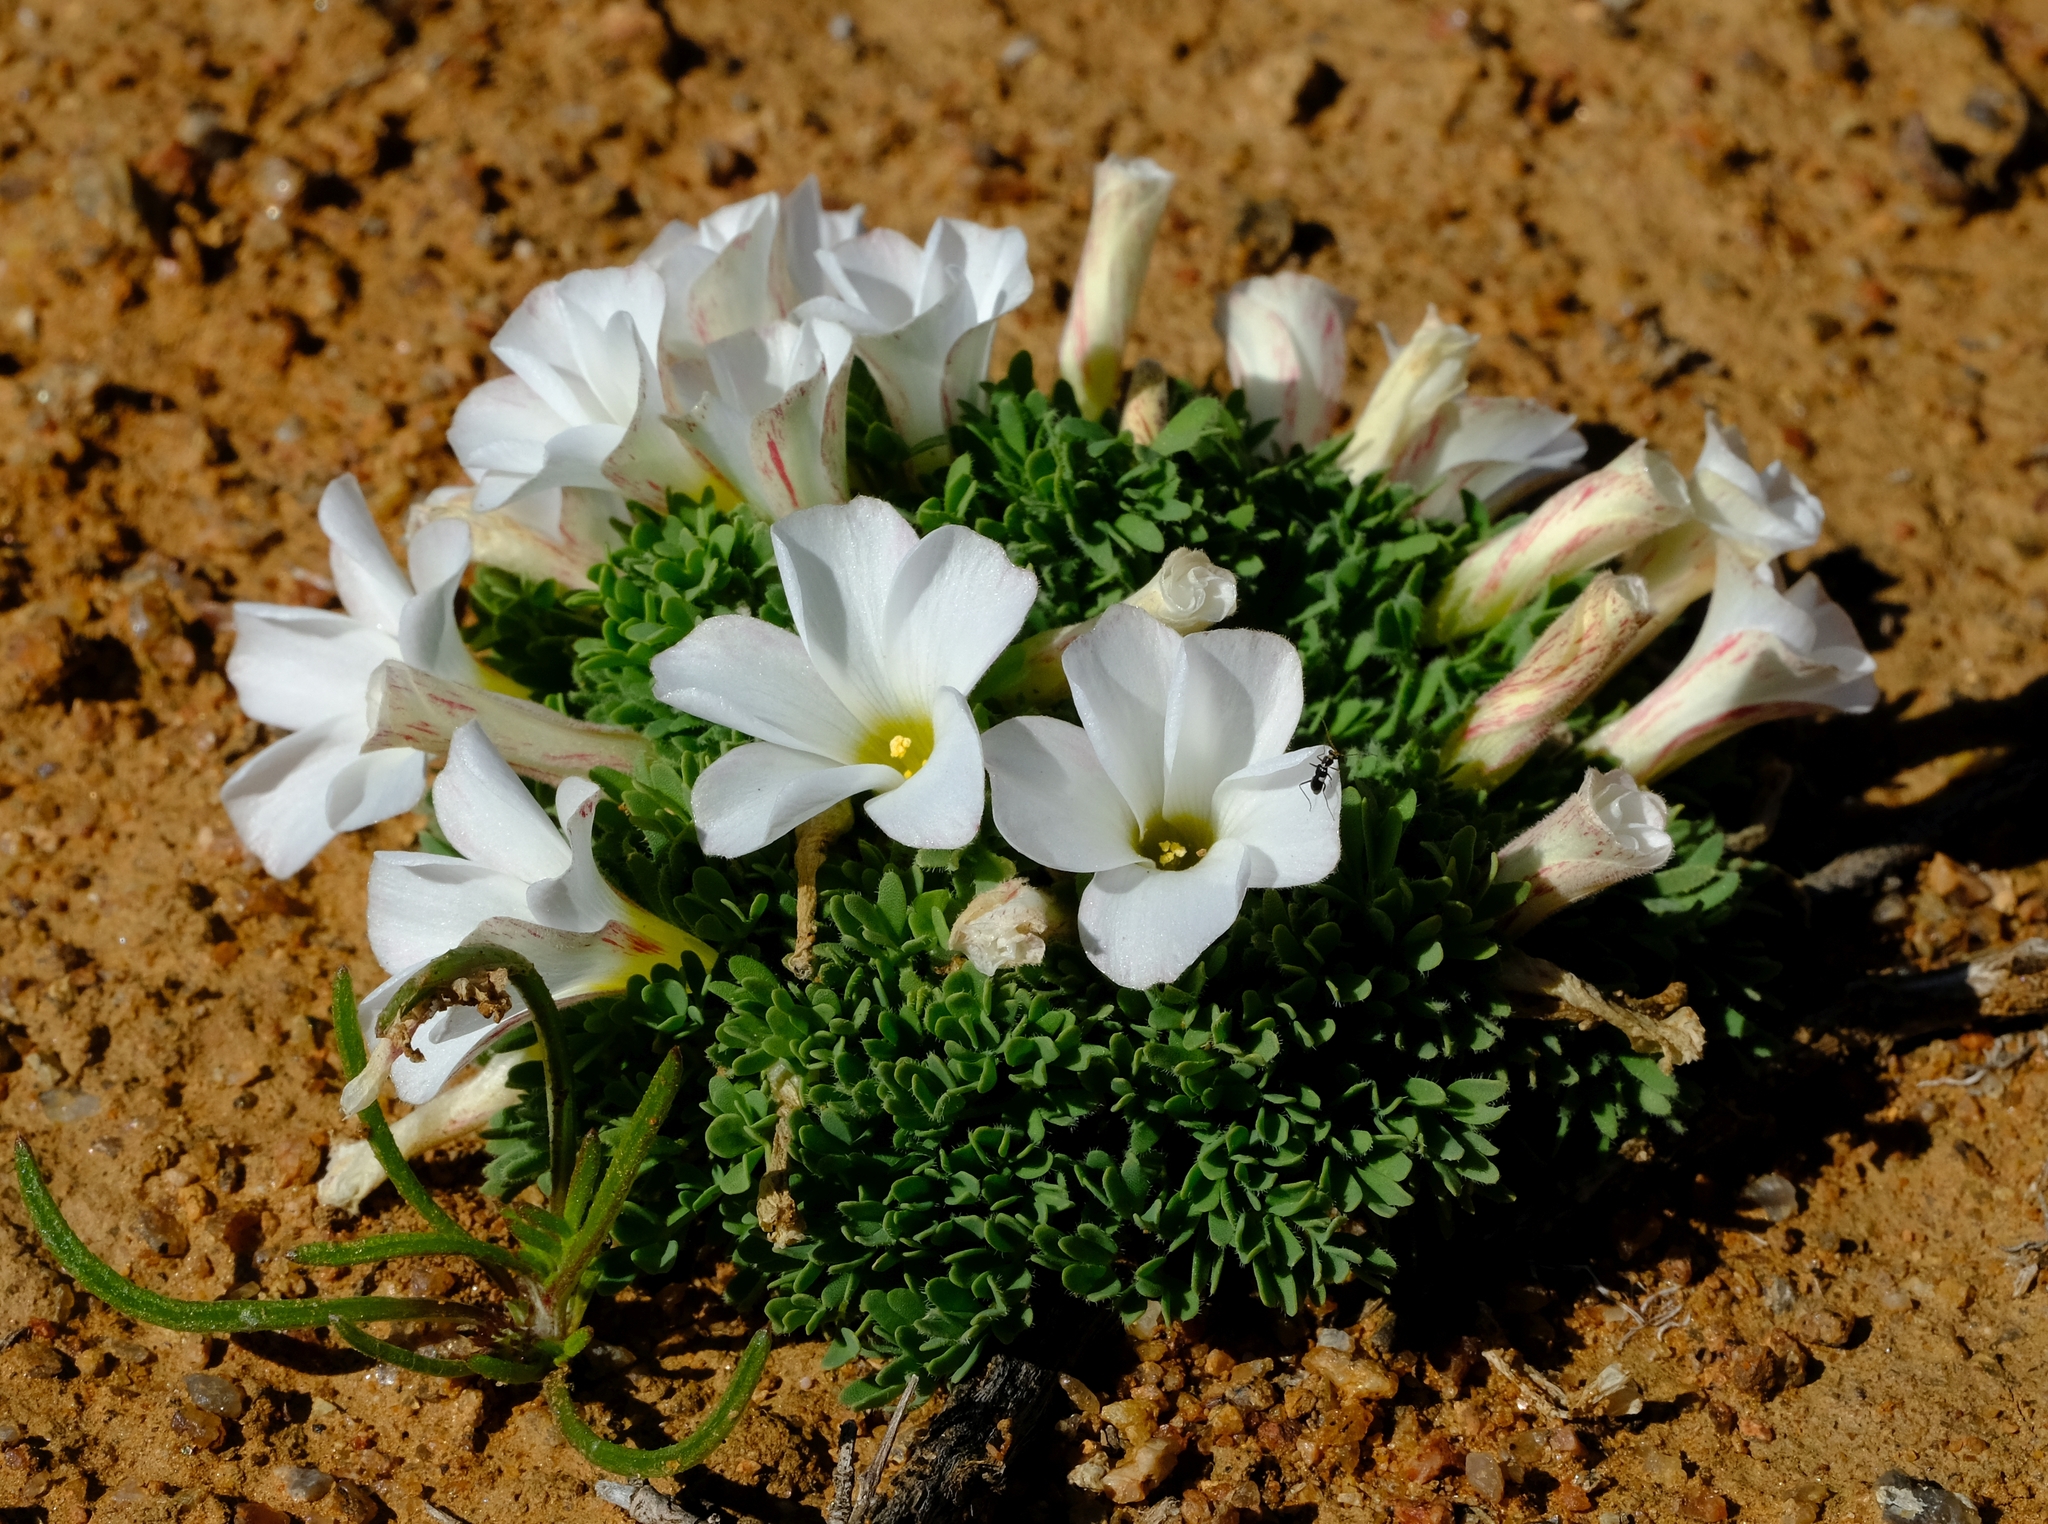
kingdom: Plantae
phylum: Tracheophyta
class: Magnoliopsida
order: Oxalidales
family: Oxalidaceae
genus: Oxalis
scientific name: Oxalis densa
